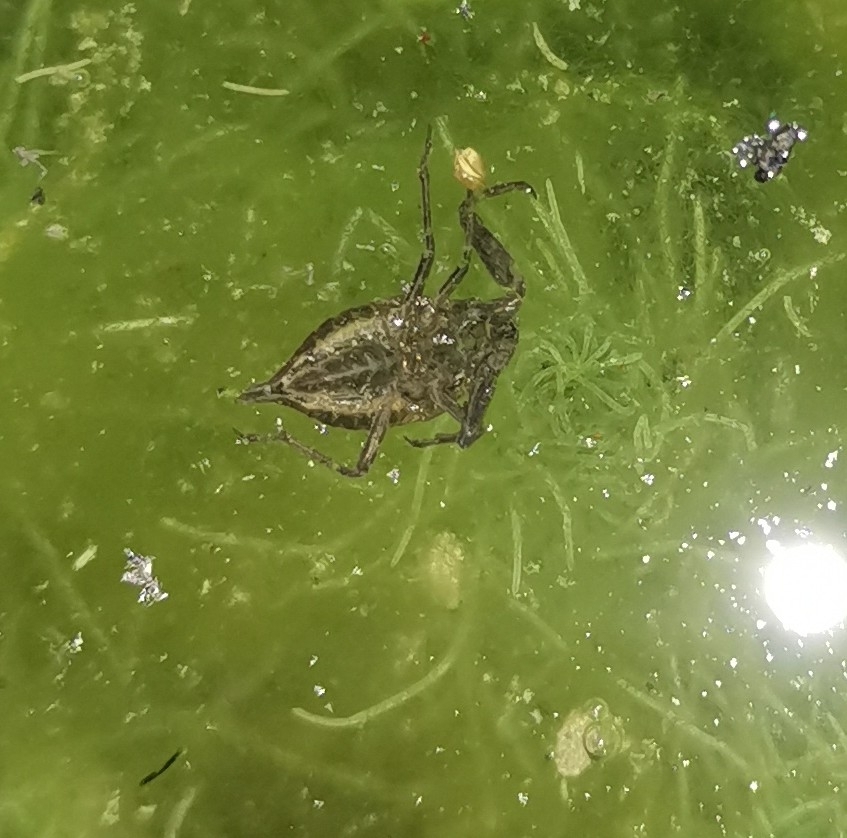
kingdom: Animalia
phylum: Arthropoda
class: Insecta
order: Hemiptera
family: Nepidae
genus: Nepa
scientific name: Nepa cinerea
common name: Water scorpion
